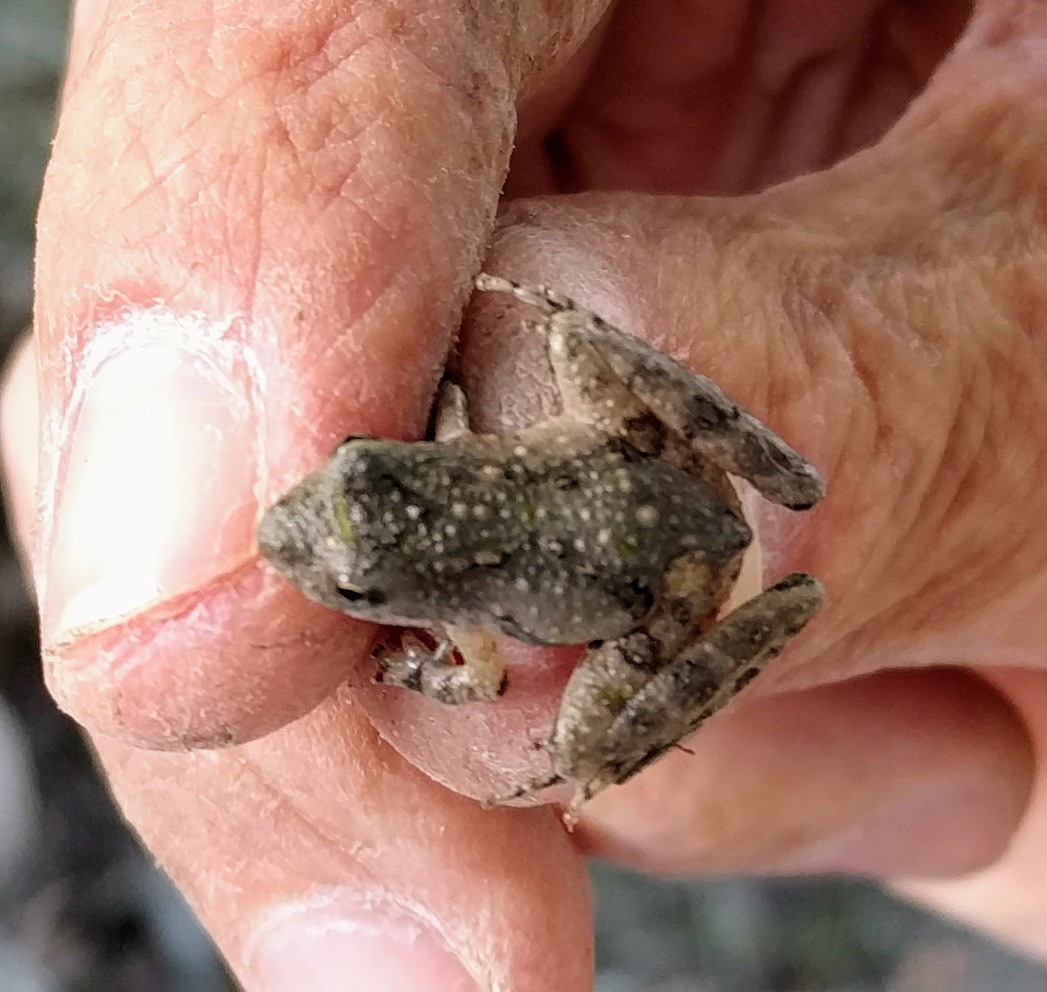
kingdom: Animalia
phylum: Chordata
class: Amphibia
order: Anura
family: Hylidae
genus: Acris
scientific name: Acris blanchardi
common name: Blanchard's cricket frog
